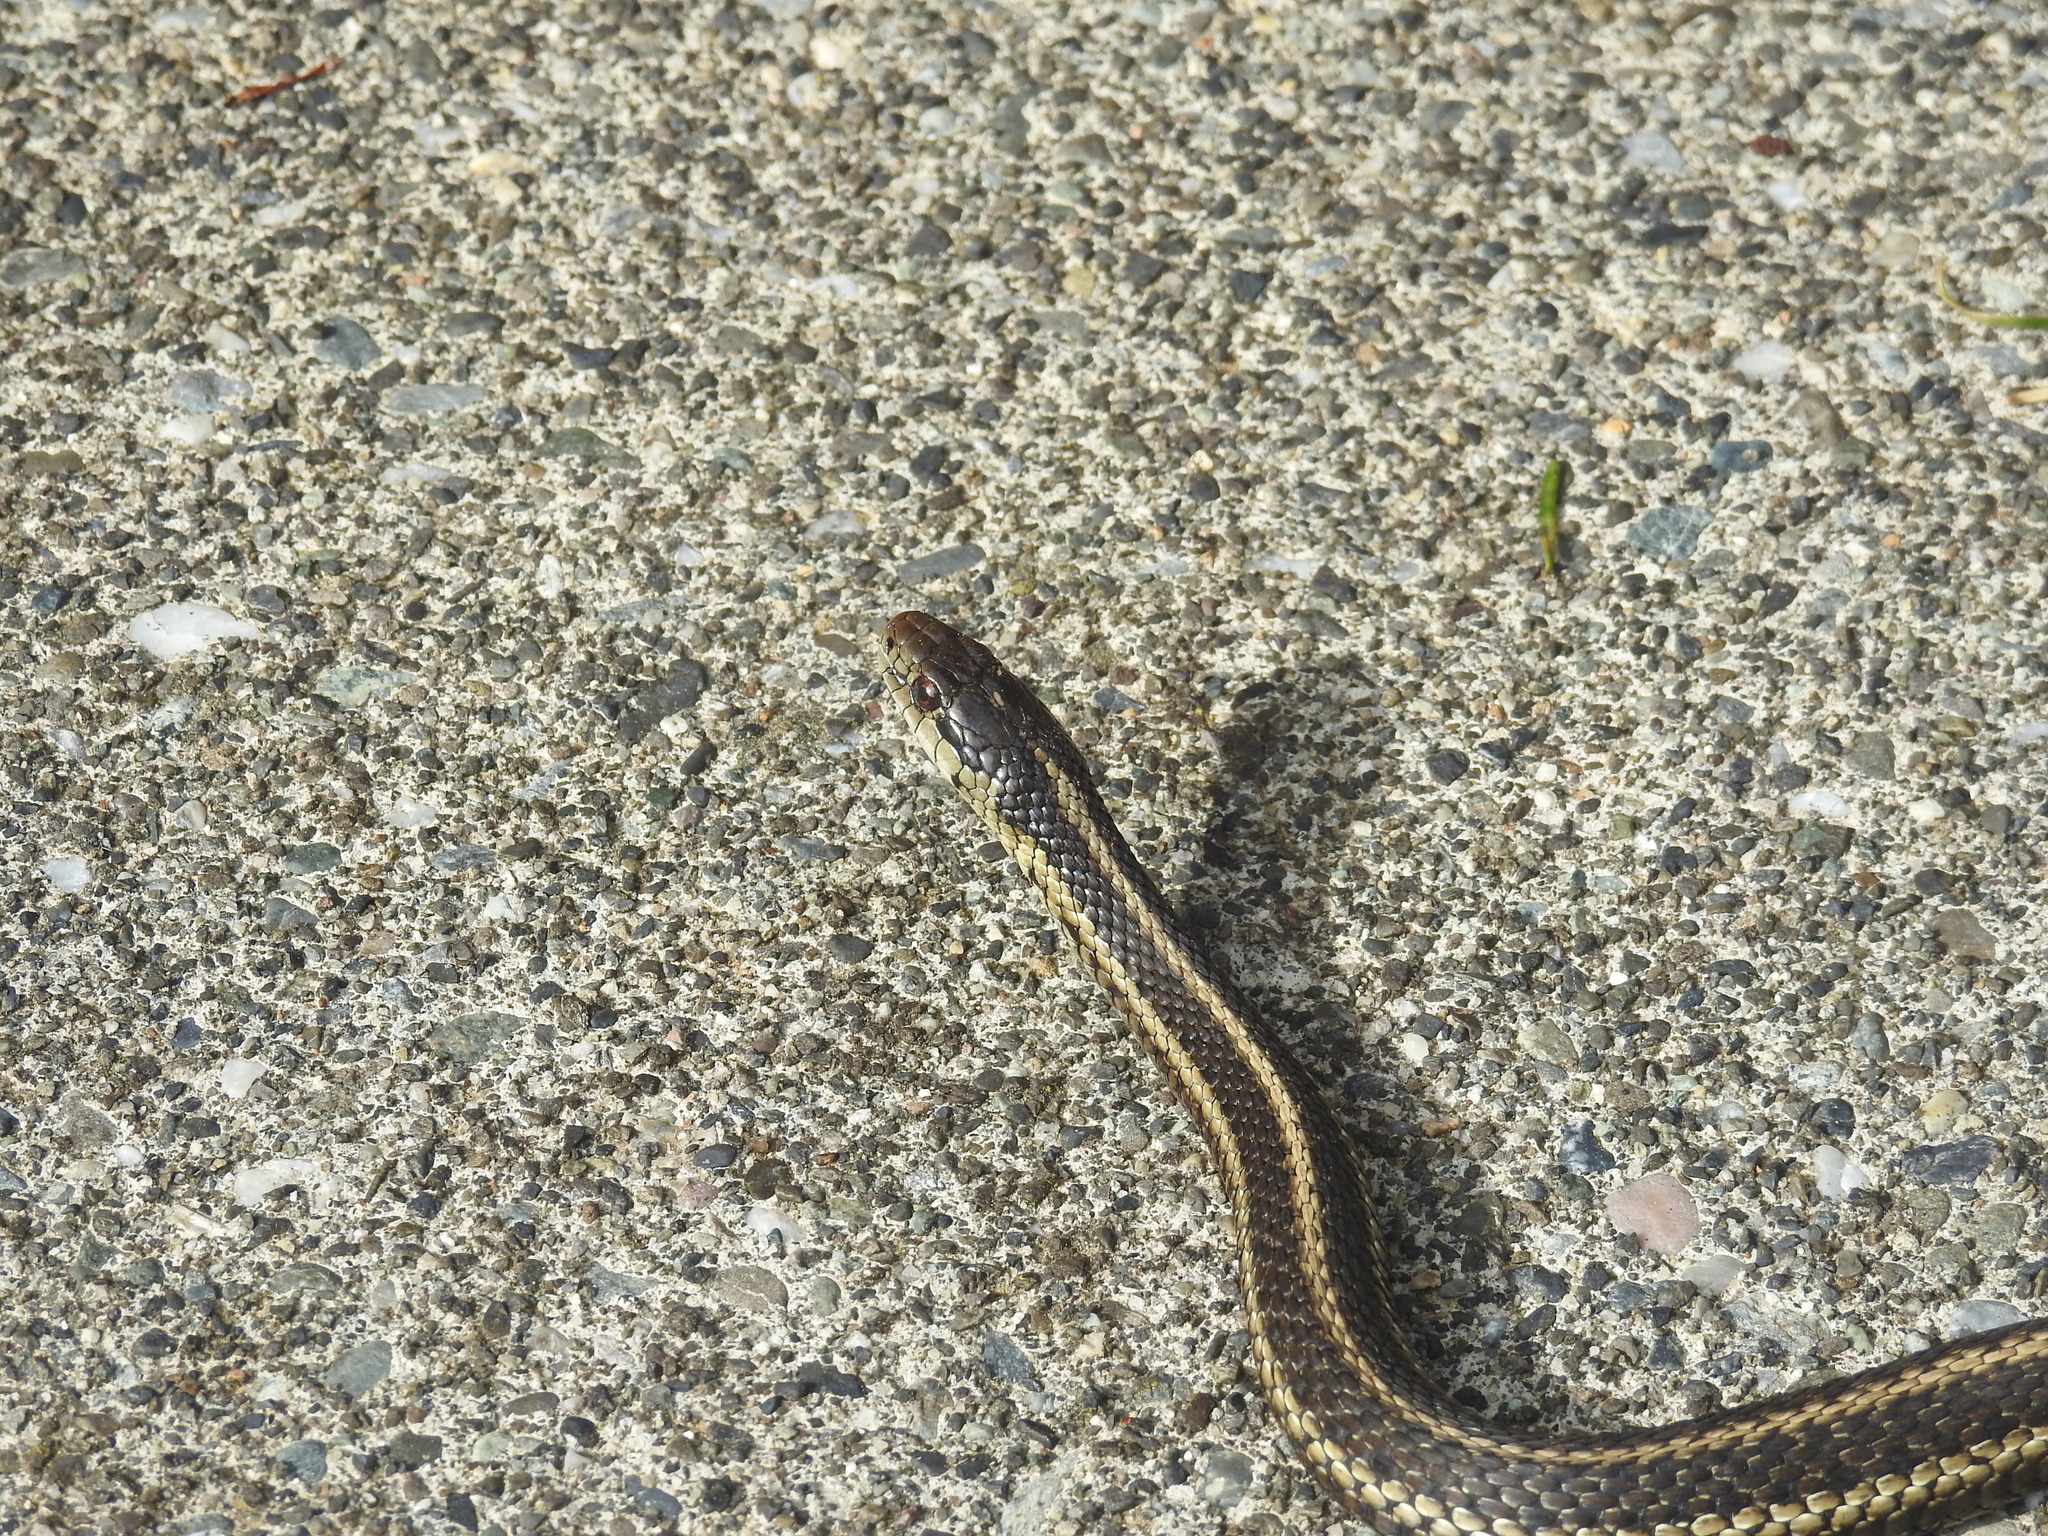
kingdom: Animalia
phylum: Chordata
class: Squamata
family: Colubridae
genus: Thamnophis
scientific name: Thamnophis ordinoides
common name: Northwestern garter snake
